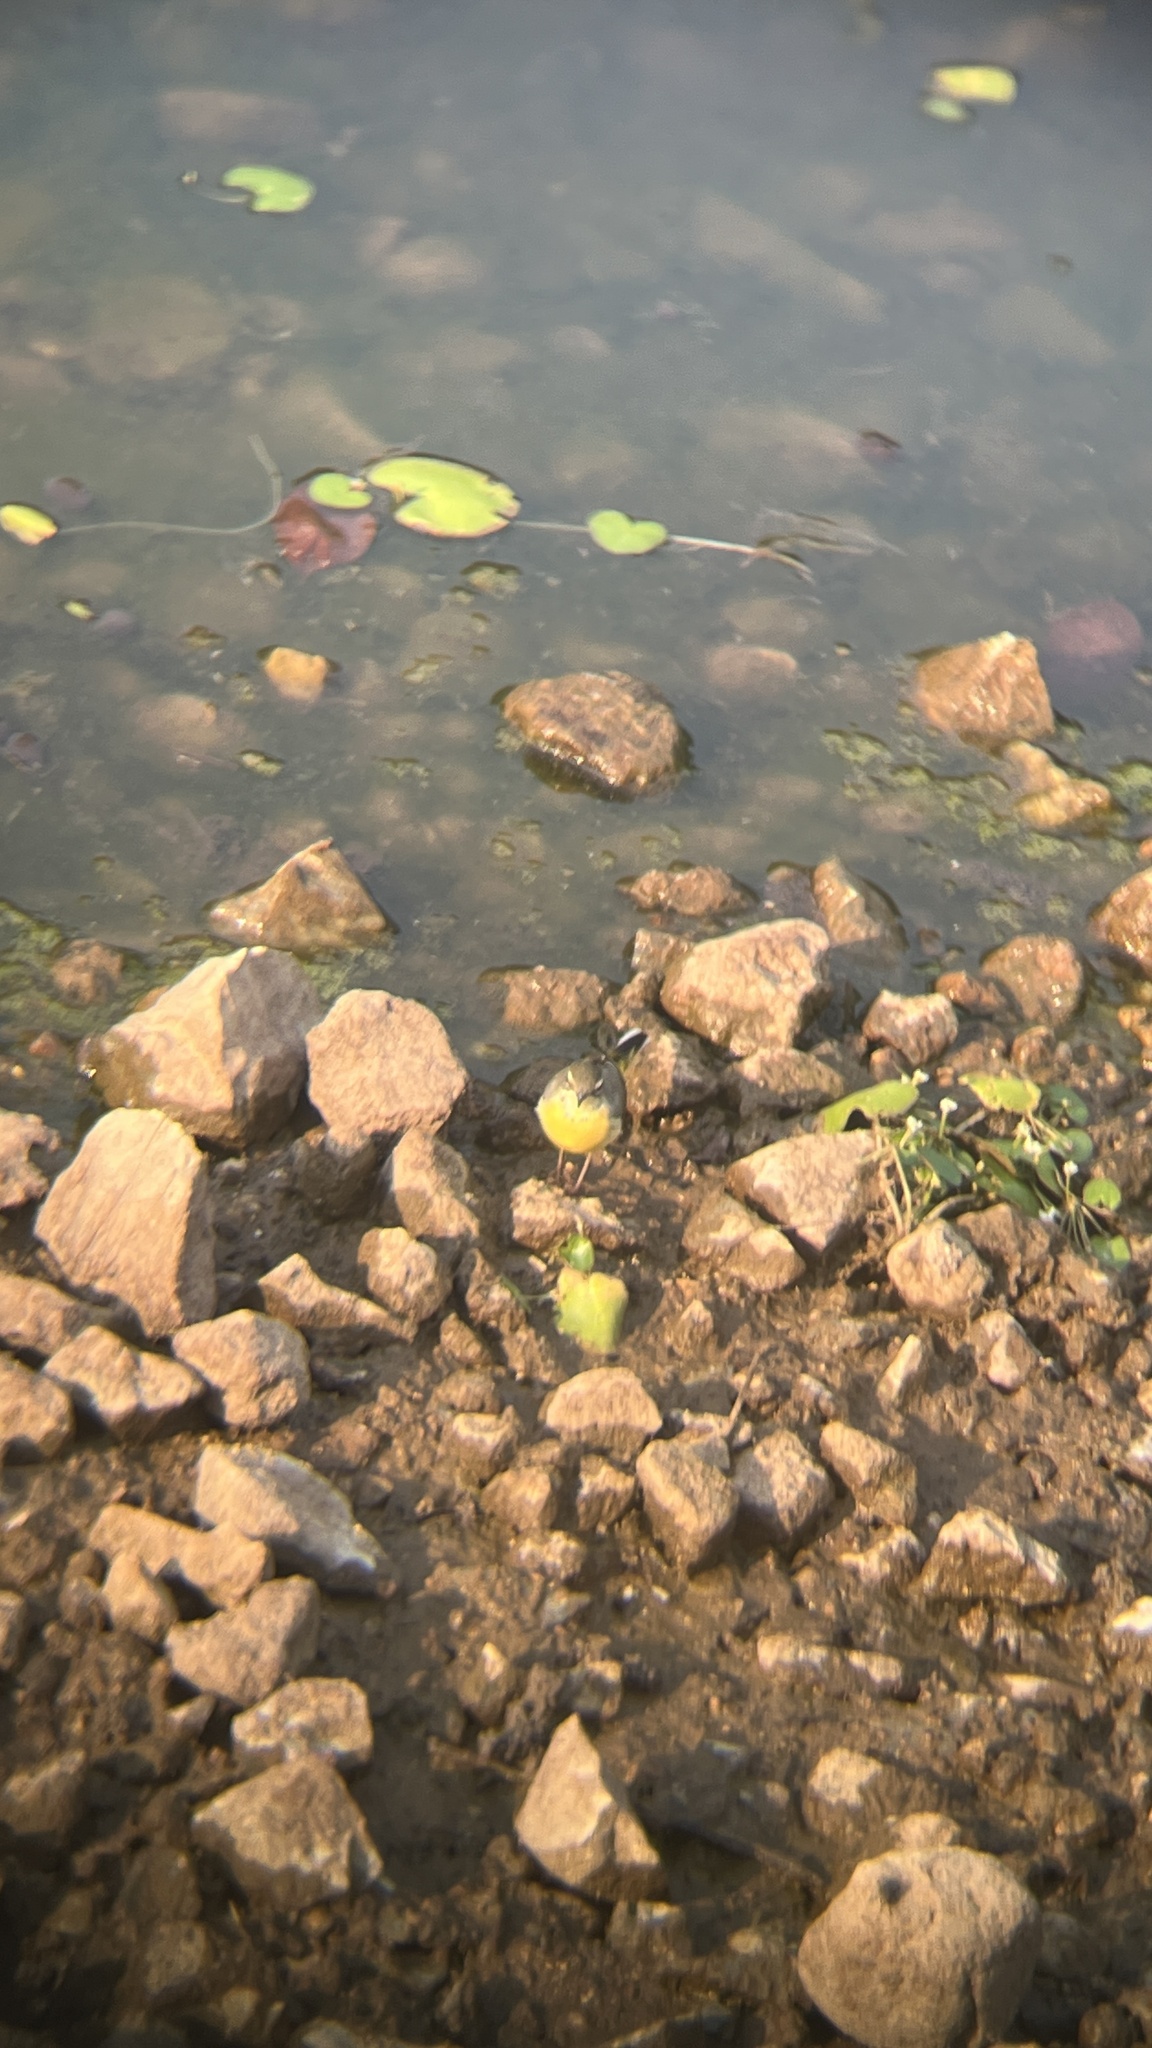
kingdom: Animalia
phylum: Chordata
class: Aves
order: Passeriformes
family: Motacillidae
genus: Motacilla
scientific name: Motacilla cinerea
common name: Grey wagtail
